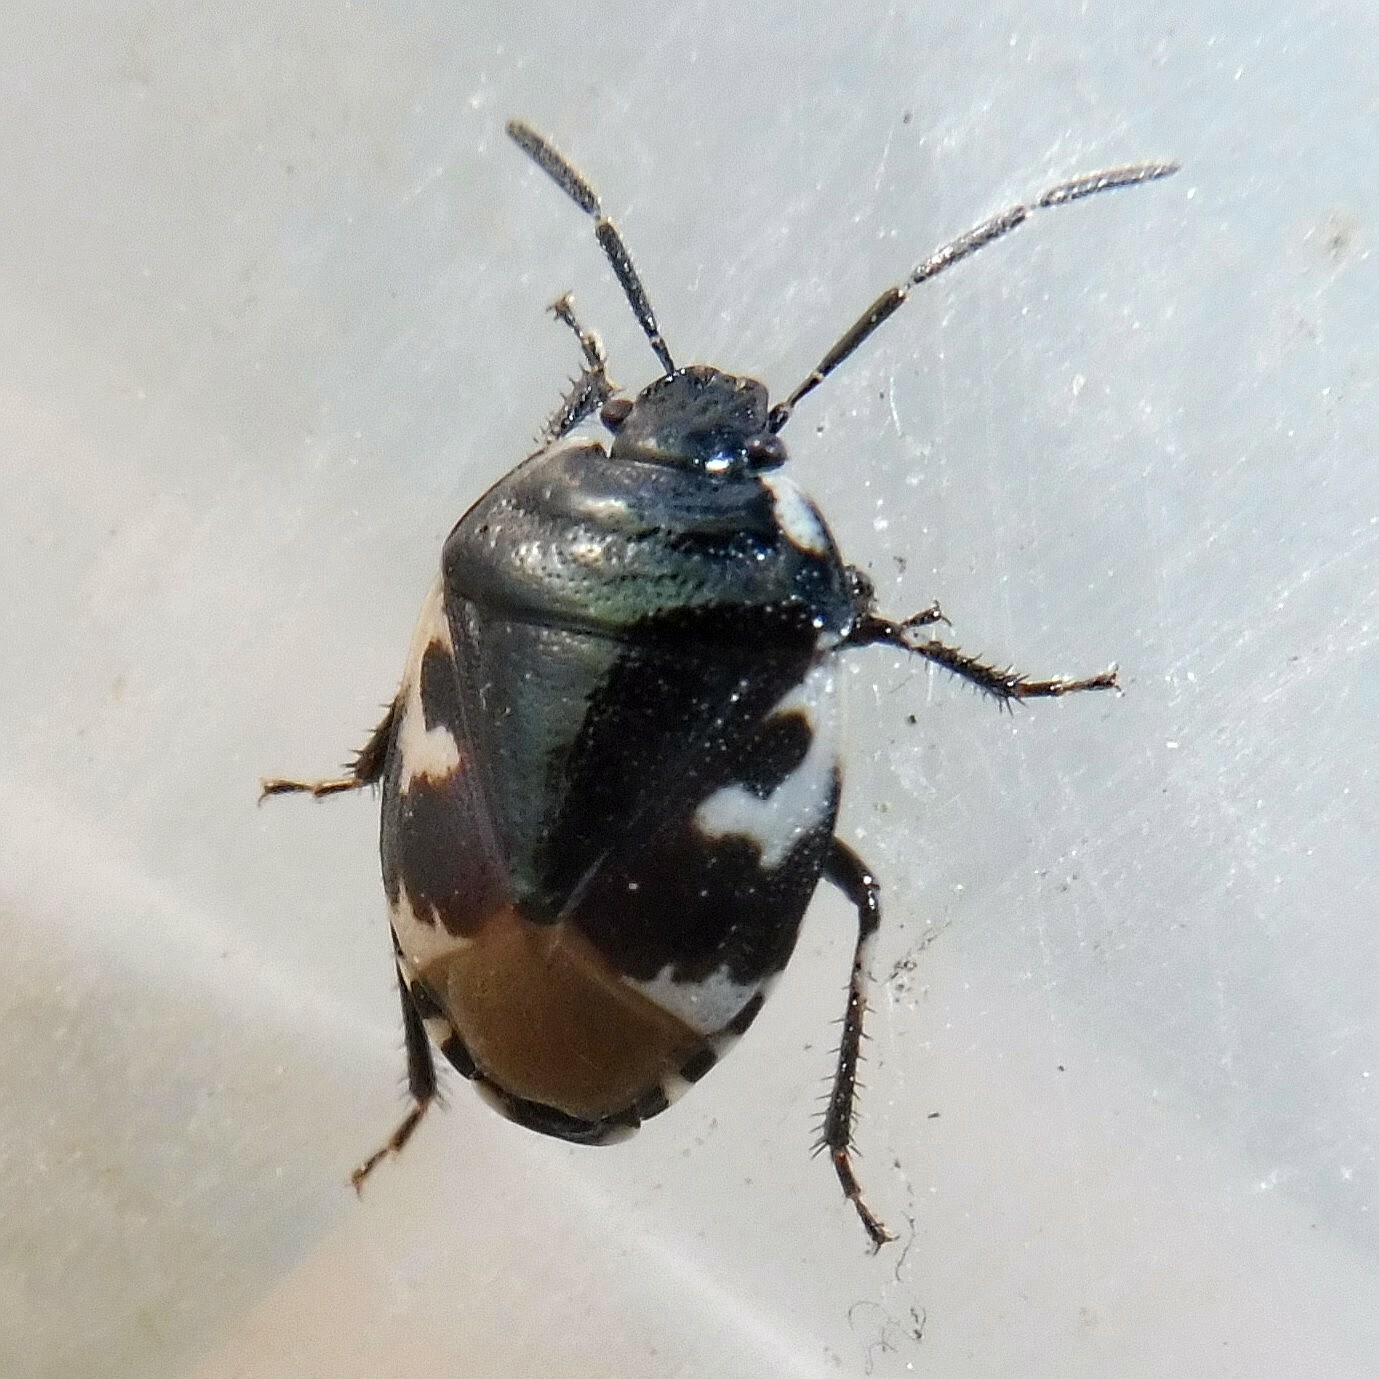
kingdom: Animalia
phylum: Arthropoda
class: Insecta
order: Hemiptera
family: Cydnidae
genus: Tritomegas
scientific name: Tritomegas bicolor
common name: Pied shieldbug
